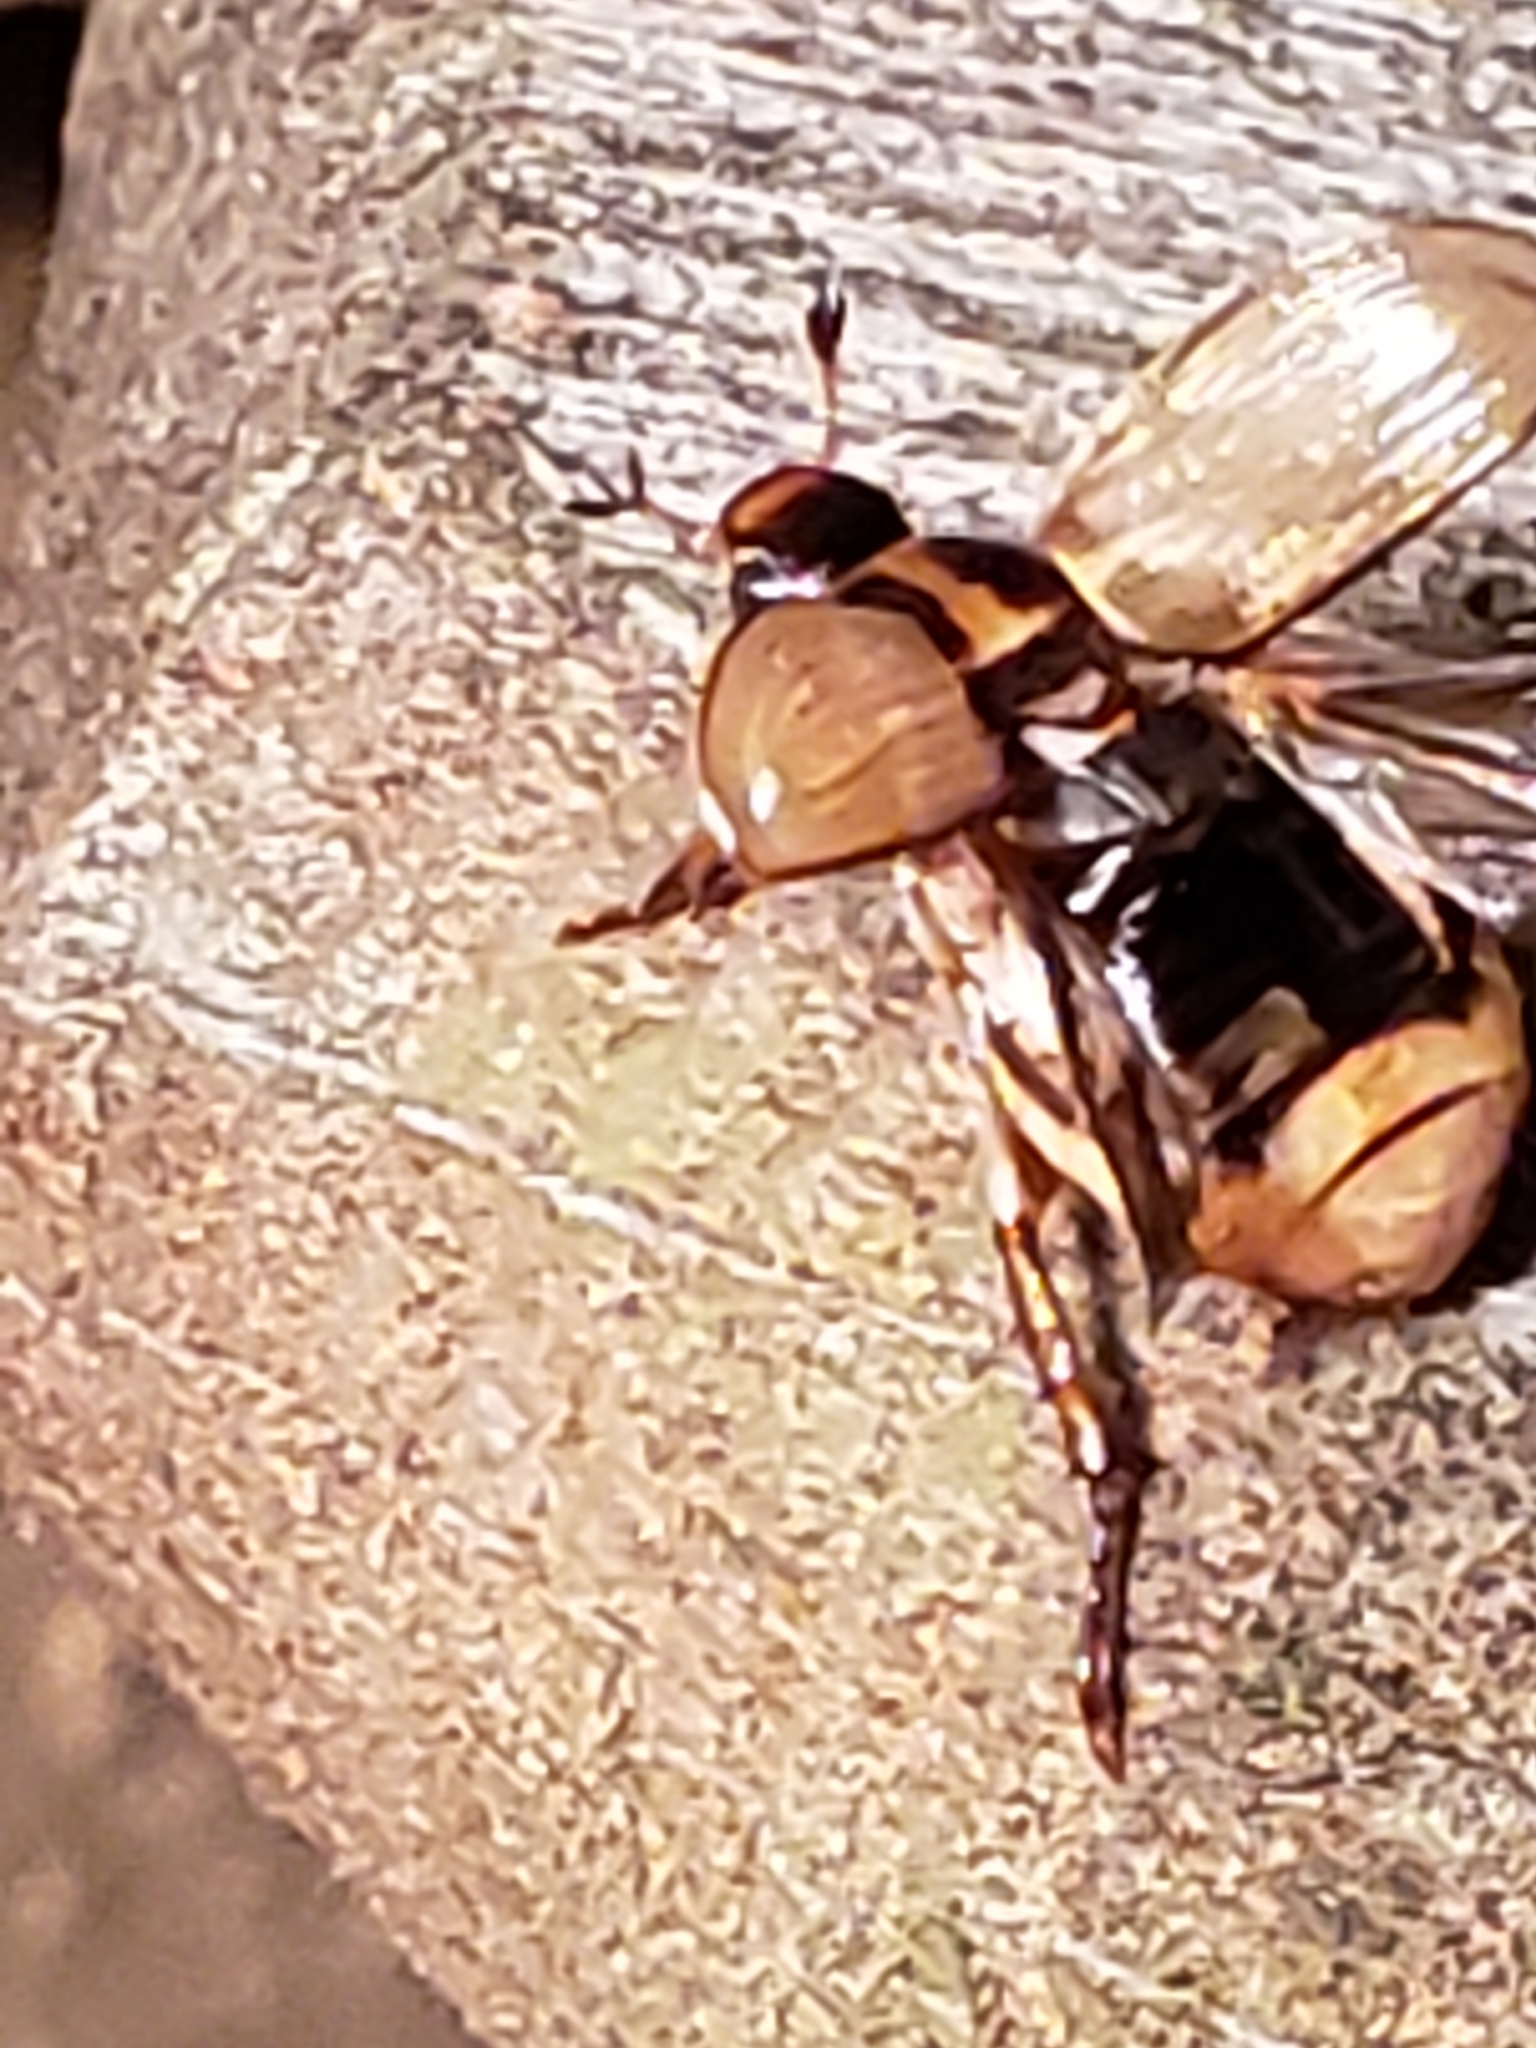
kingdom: Animalia
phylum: Arthropoda
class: Insecta
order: Coleoptera
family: Scarabaeidae
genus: Exomala
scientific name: Exomala orientalis
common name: Oriental beetle
